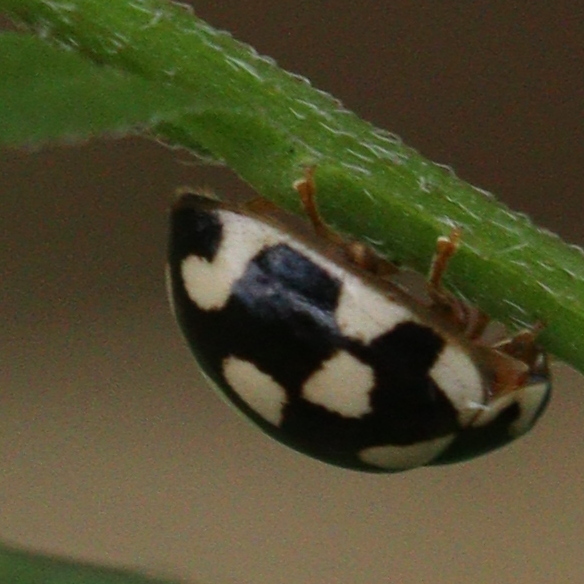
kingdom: Animalia
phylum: Arthropoda
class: Insecta
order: Coleoptera
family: Coccinellidae
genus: Propylaea
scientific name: Propylaea quatuordecimpunctata
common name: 14-spotted ladybird beetle
